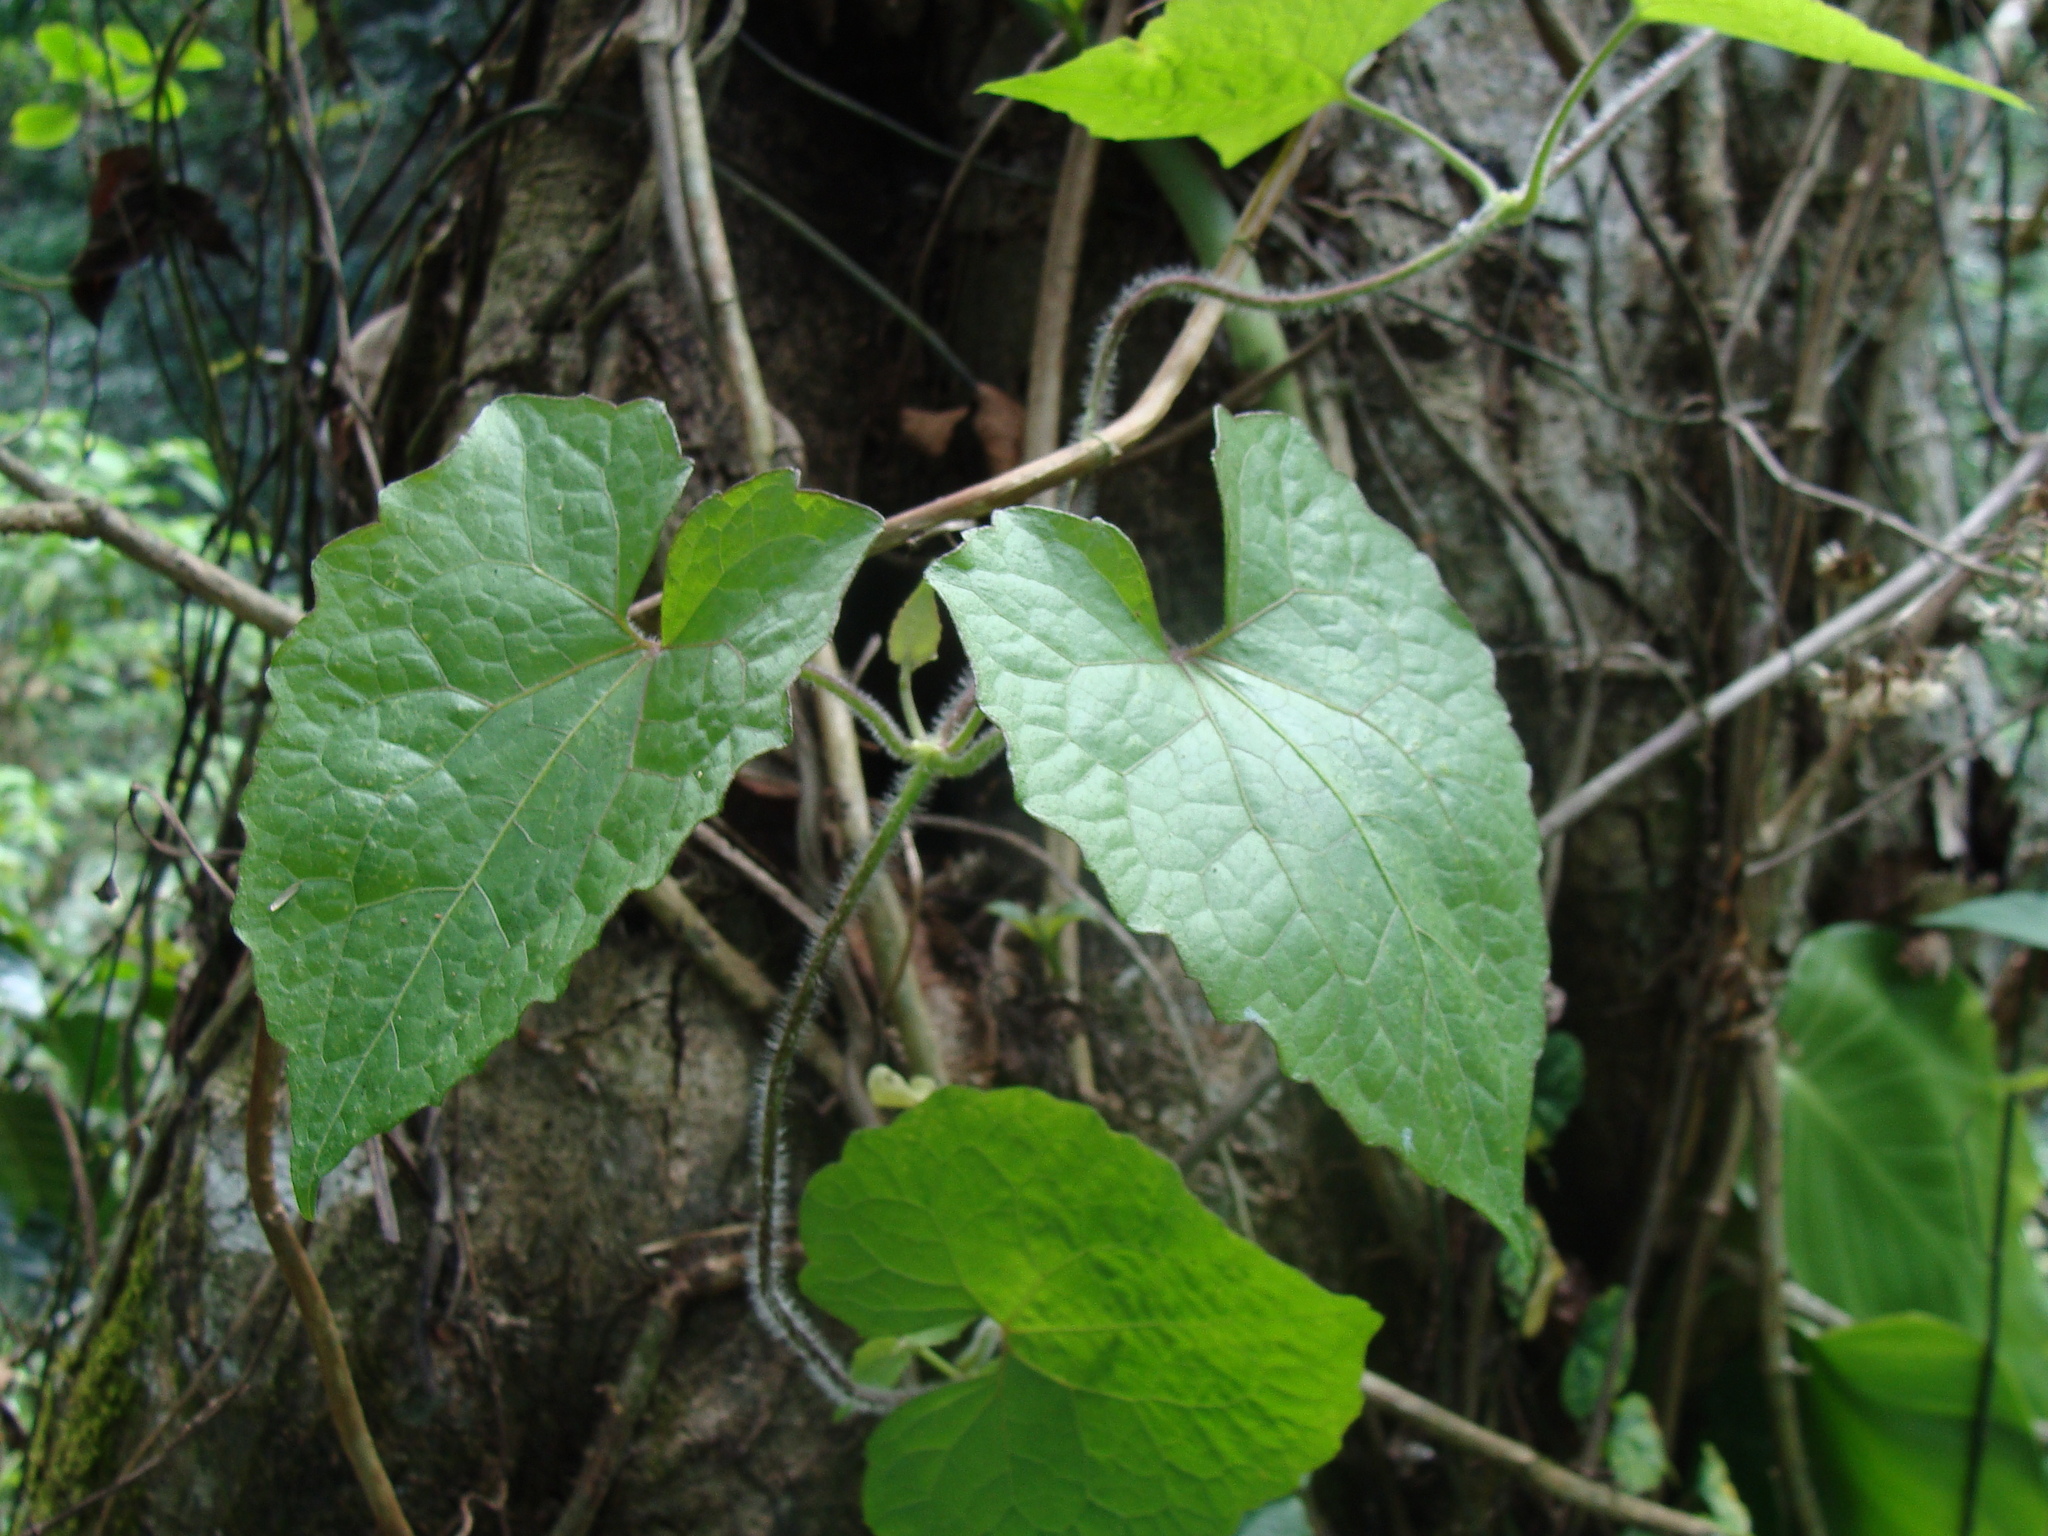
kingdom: Plantae
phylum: Tracheophyta
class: Magnoliopsida
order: Asterales
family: Asteraceae
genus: Mikania
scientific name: Mikania micrantha
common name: Mile-a-minute
